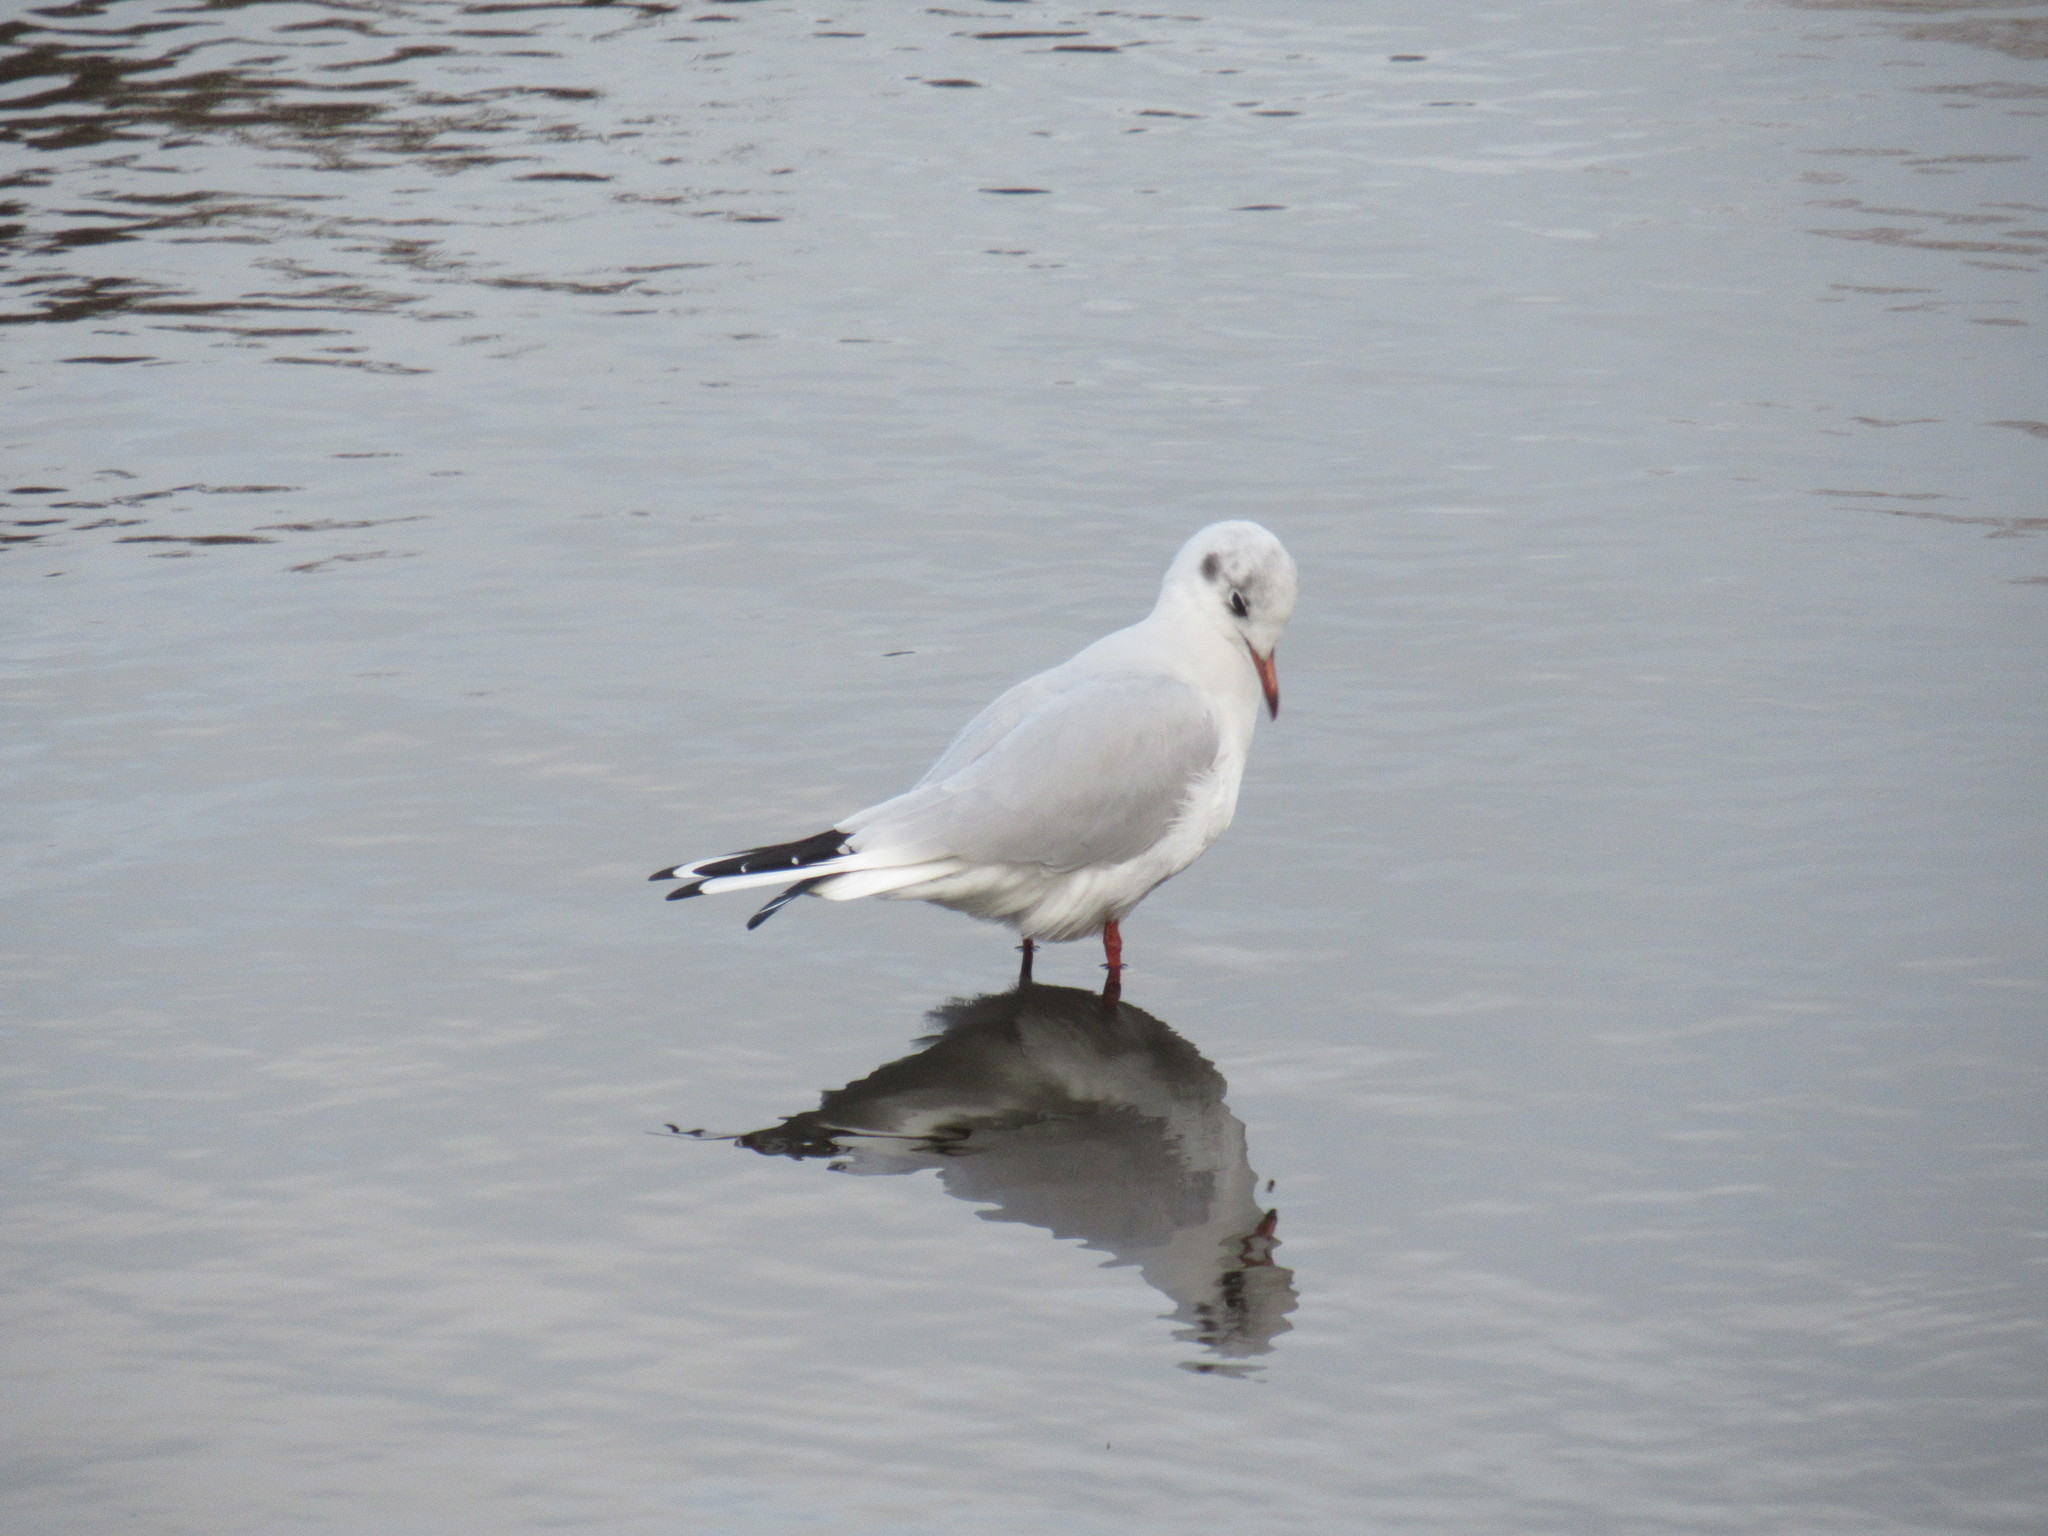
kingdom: Animalia
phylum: Chordata
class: Aves
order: Charadriiformes
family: Laridae
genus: Chroicocephalus
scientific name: Chroicocephalus ridibundus
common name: Black-headed gull
